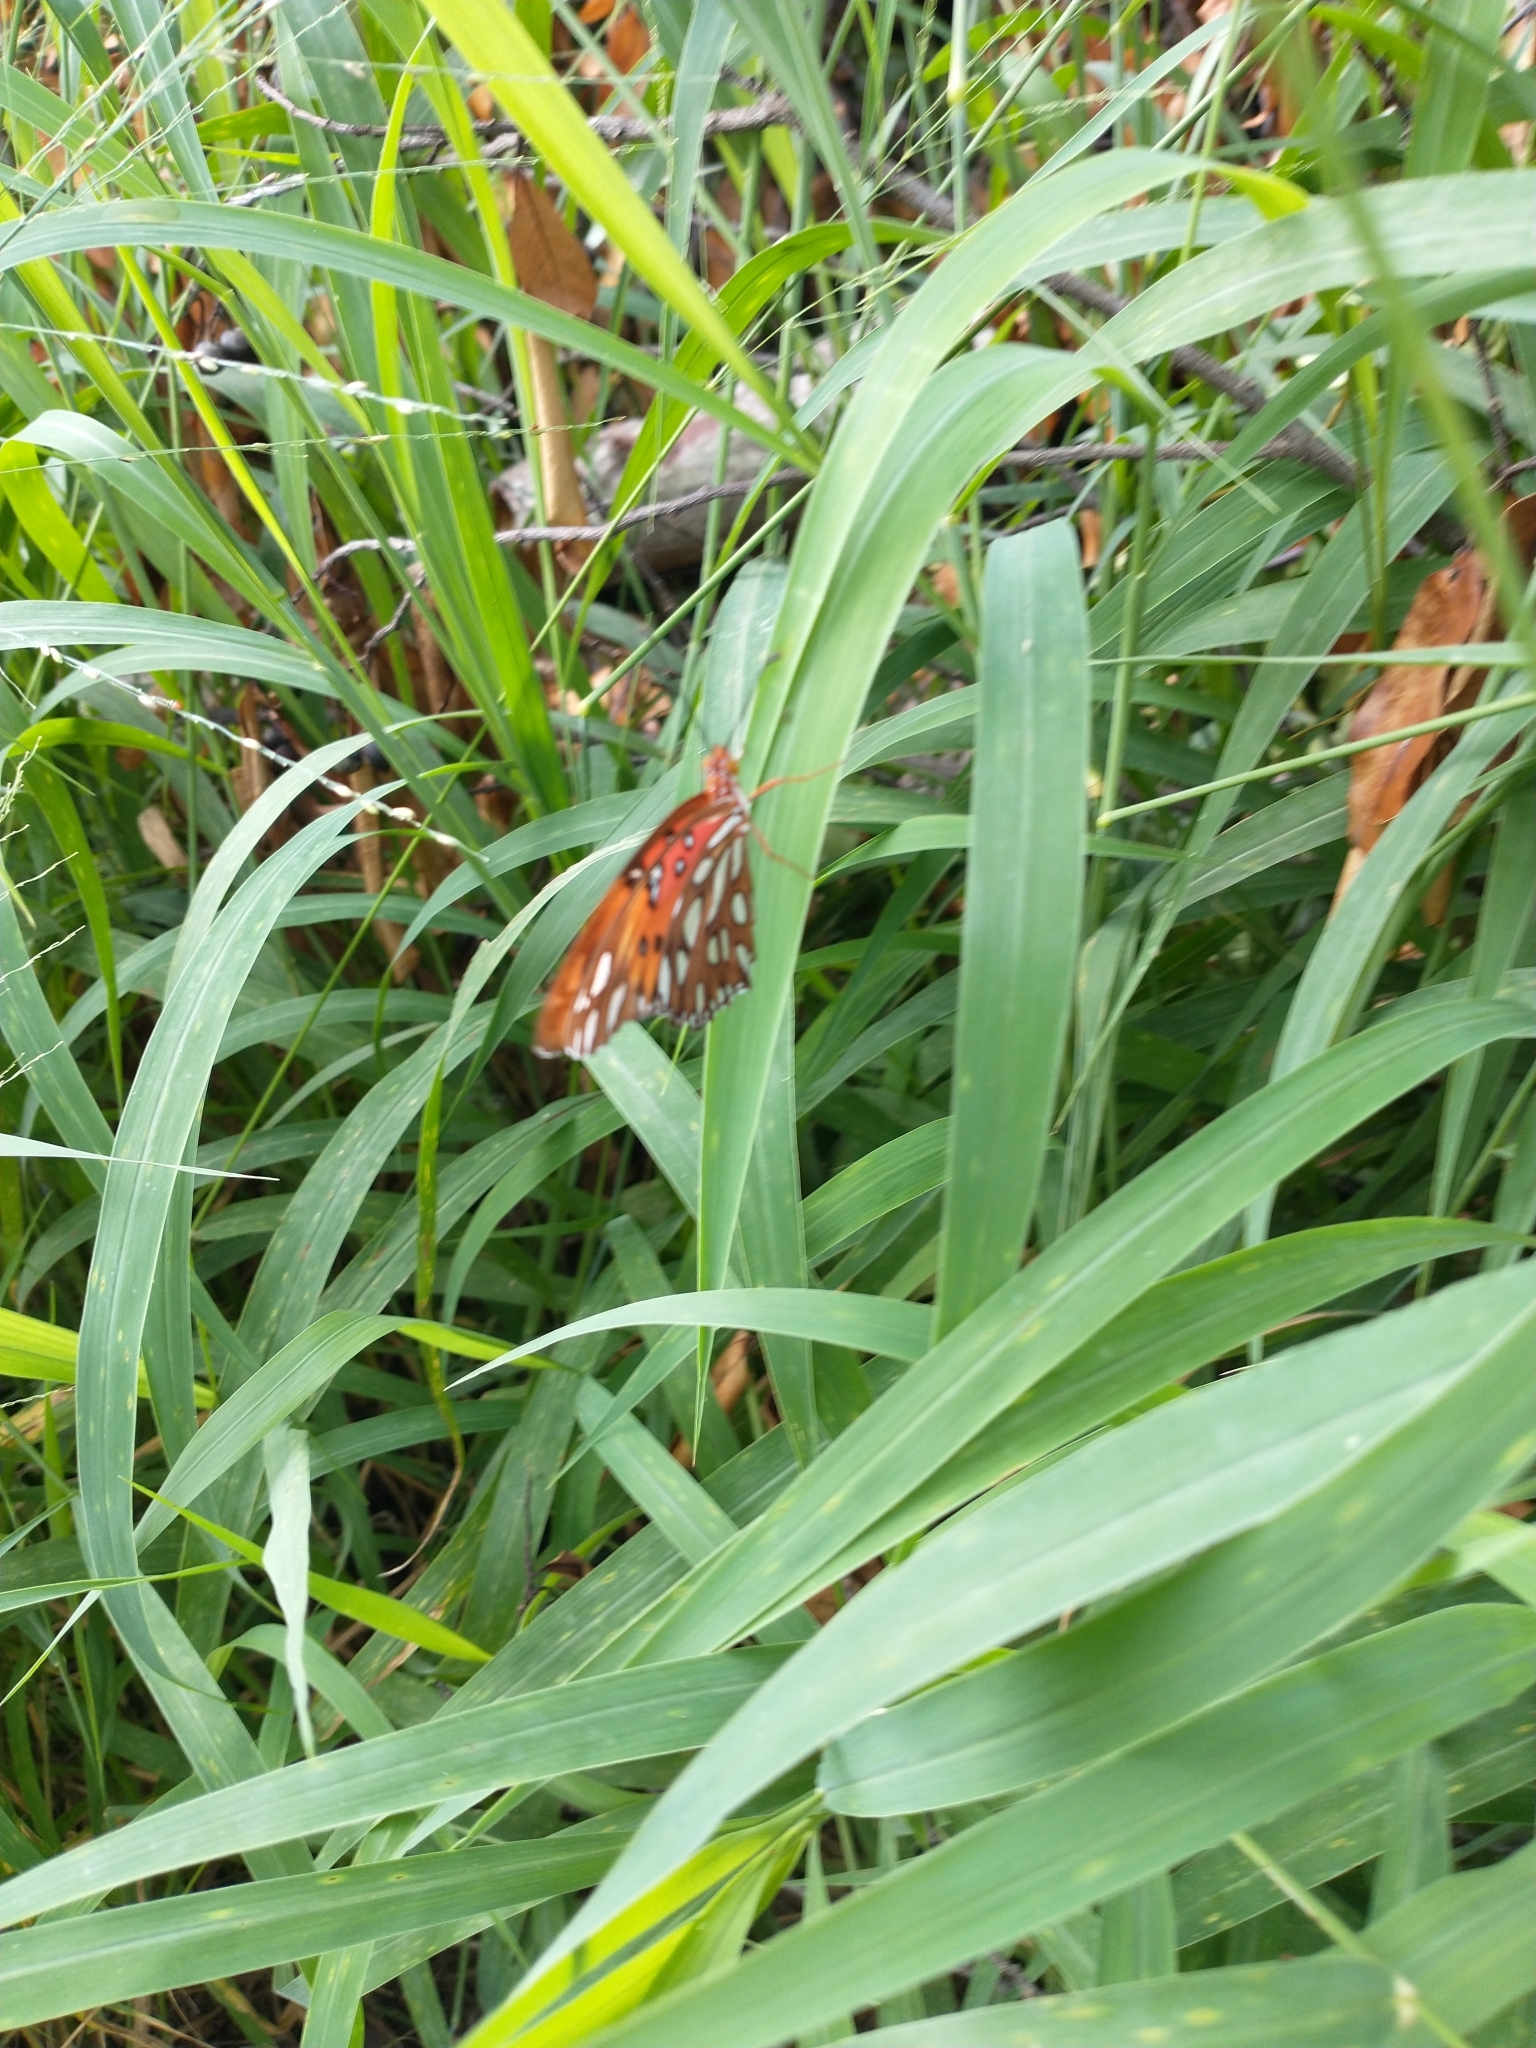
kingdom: Animalia
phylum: Arthropoda
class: Insecta
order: Lepidoptera
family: Nymphalidae
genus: Dione
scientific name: Dione vanillae
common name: Gulf fritillary
